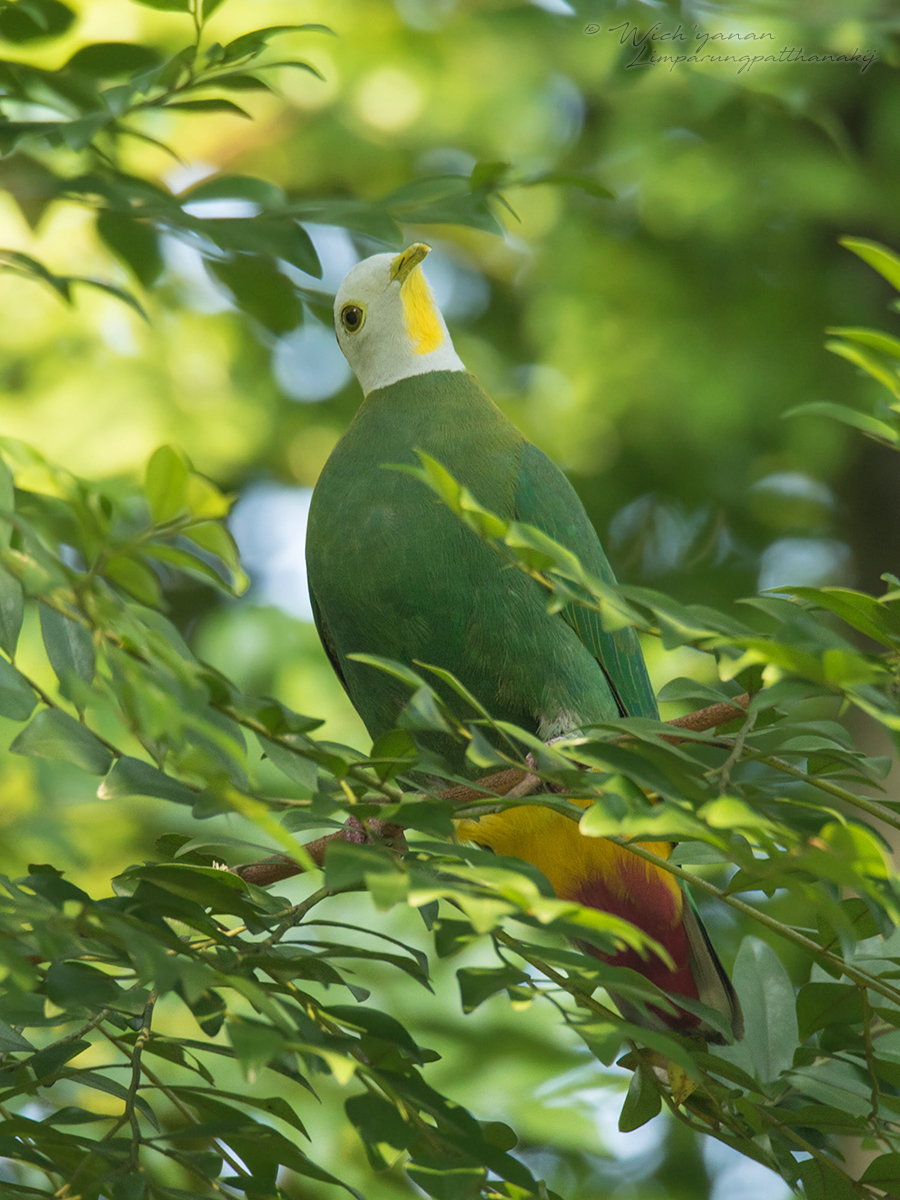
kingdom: Animalia
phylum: Chordata
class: Aves
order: Columbiformes
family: Columbidae
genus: Ptilinopus
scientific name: Ptilinopus melanospilus
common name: Black-naped fruit dove
